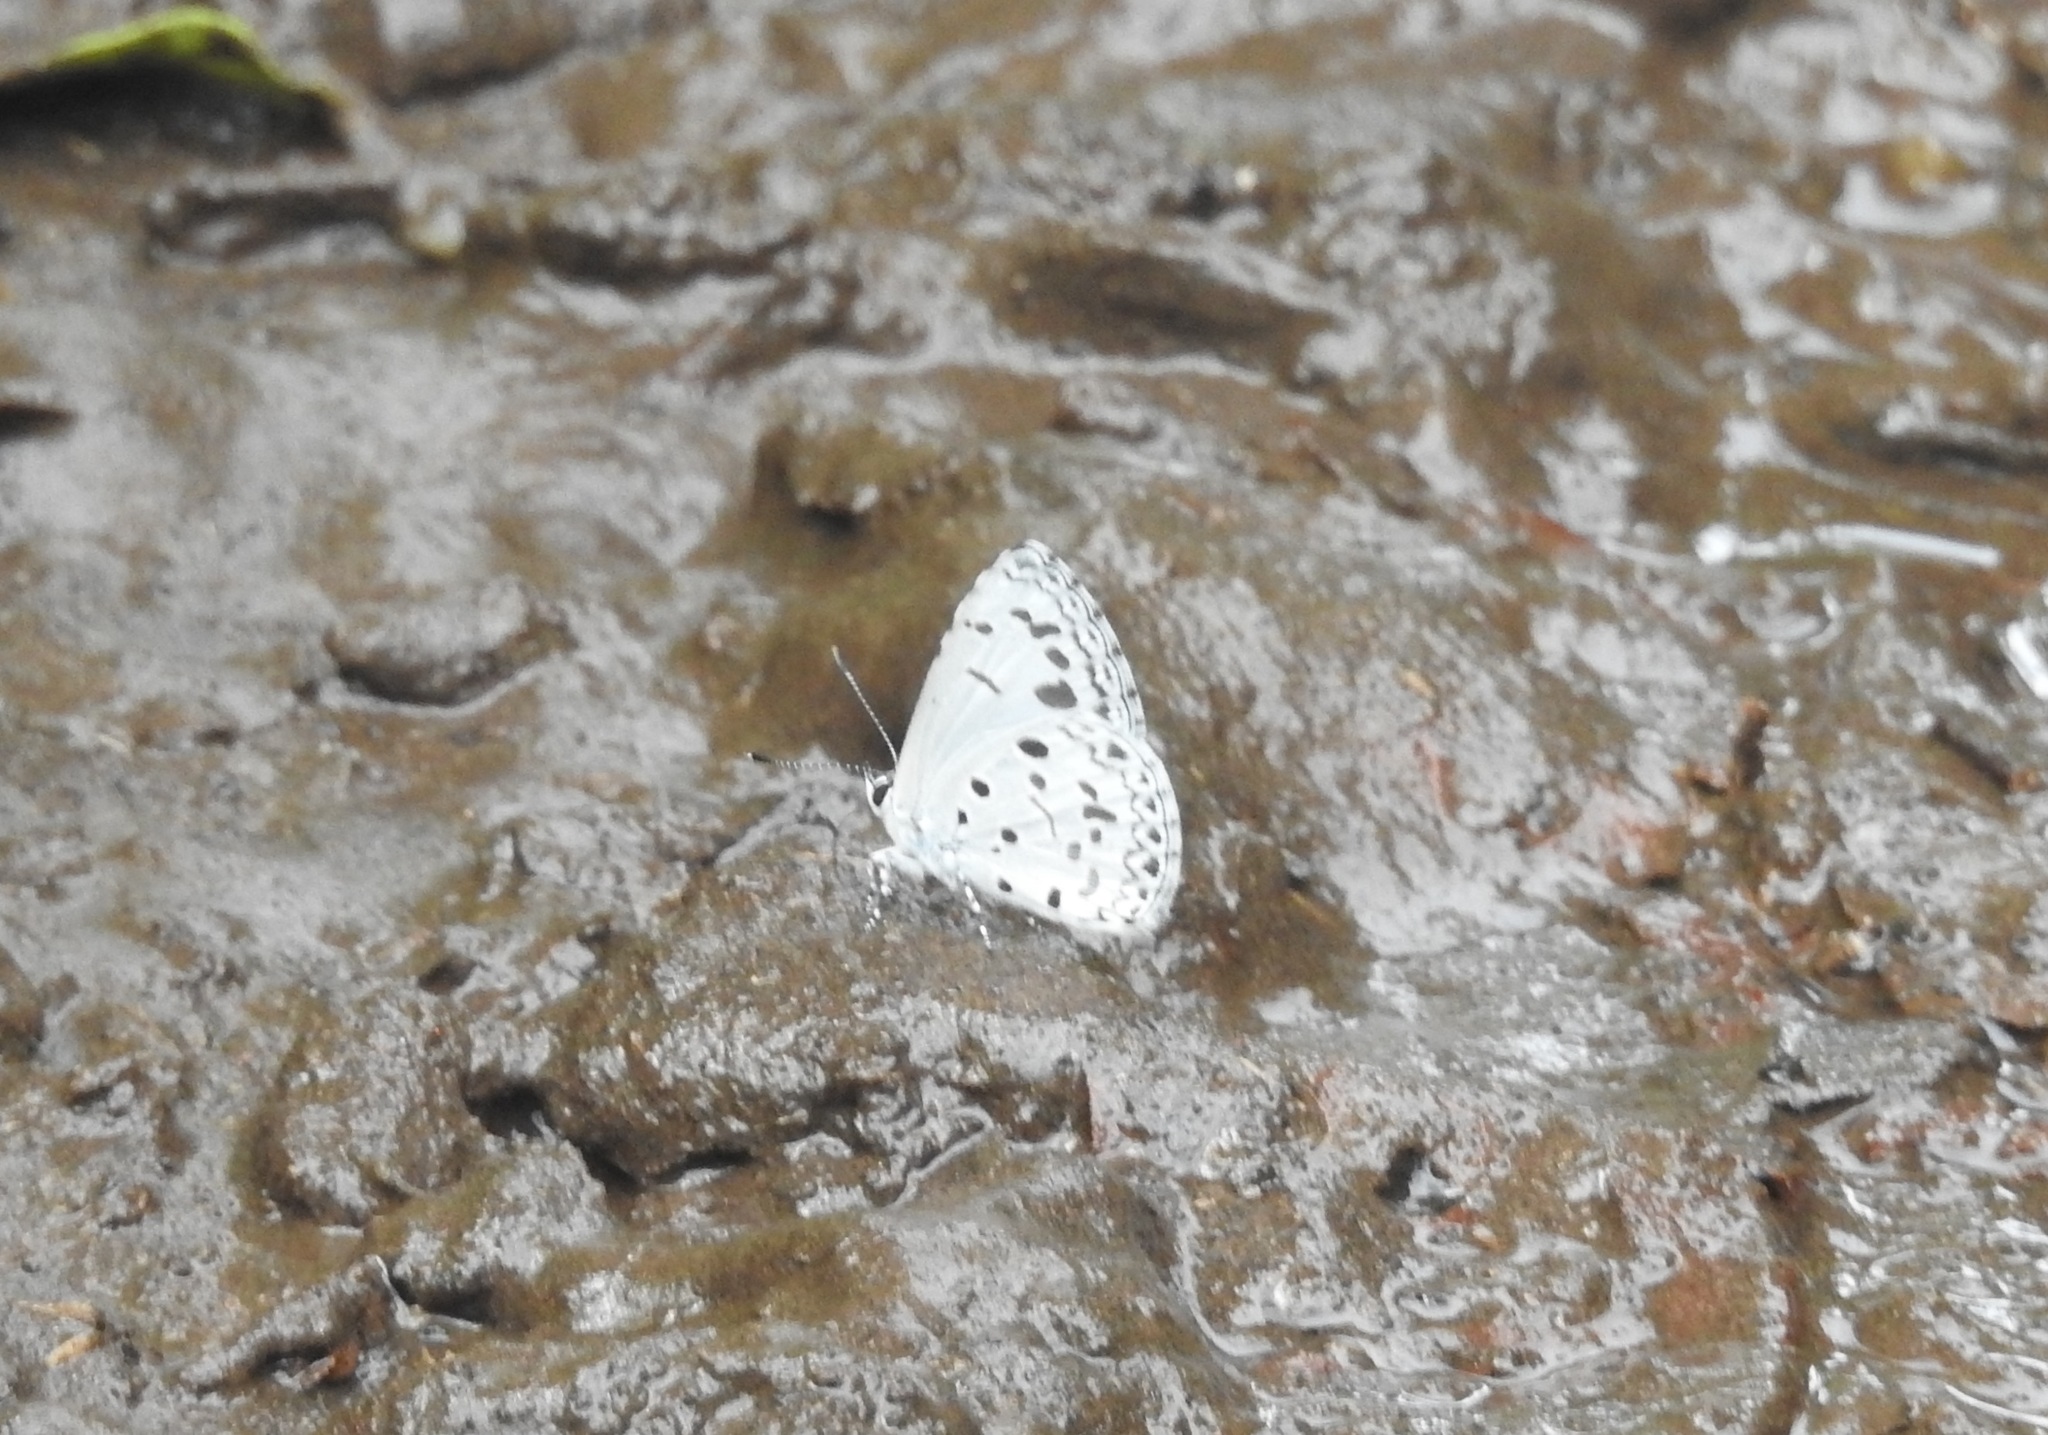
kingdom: Animalia
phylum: Arthropoda
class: Insecta
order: Lepidoptera
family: Lycaenidae
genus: Acytolepis
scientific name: Acytolepis puspa
